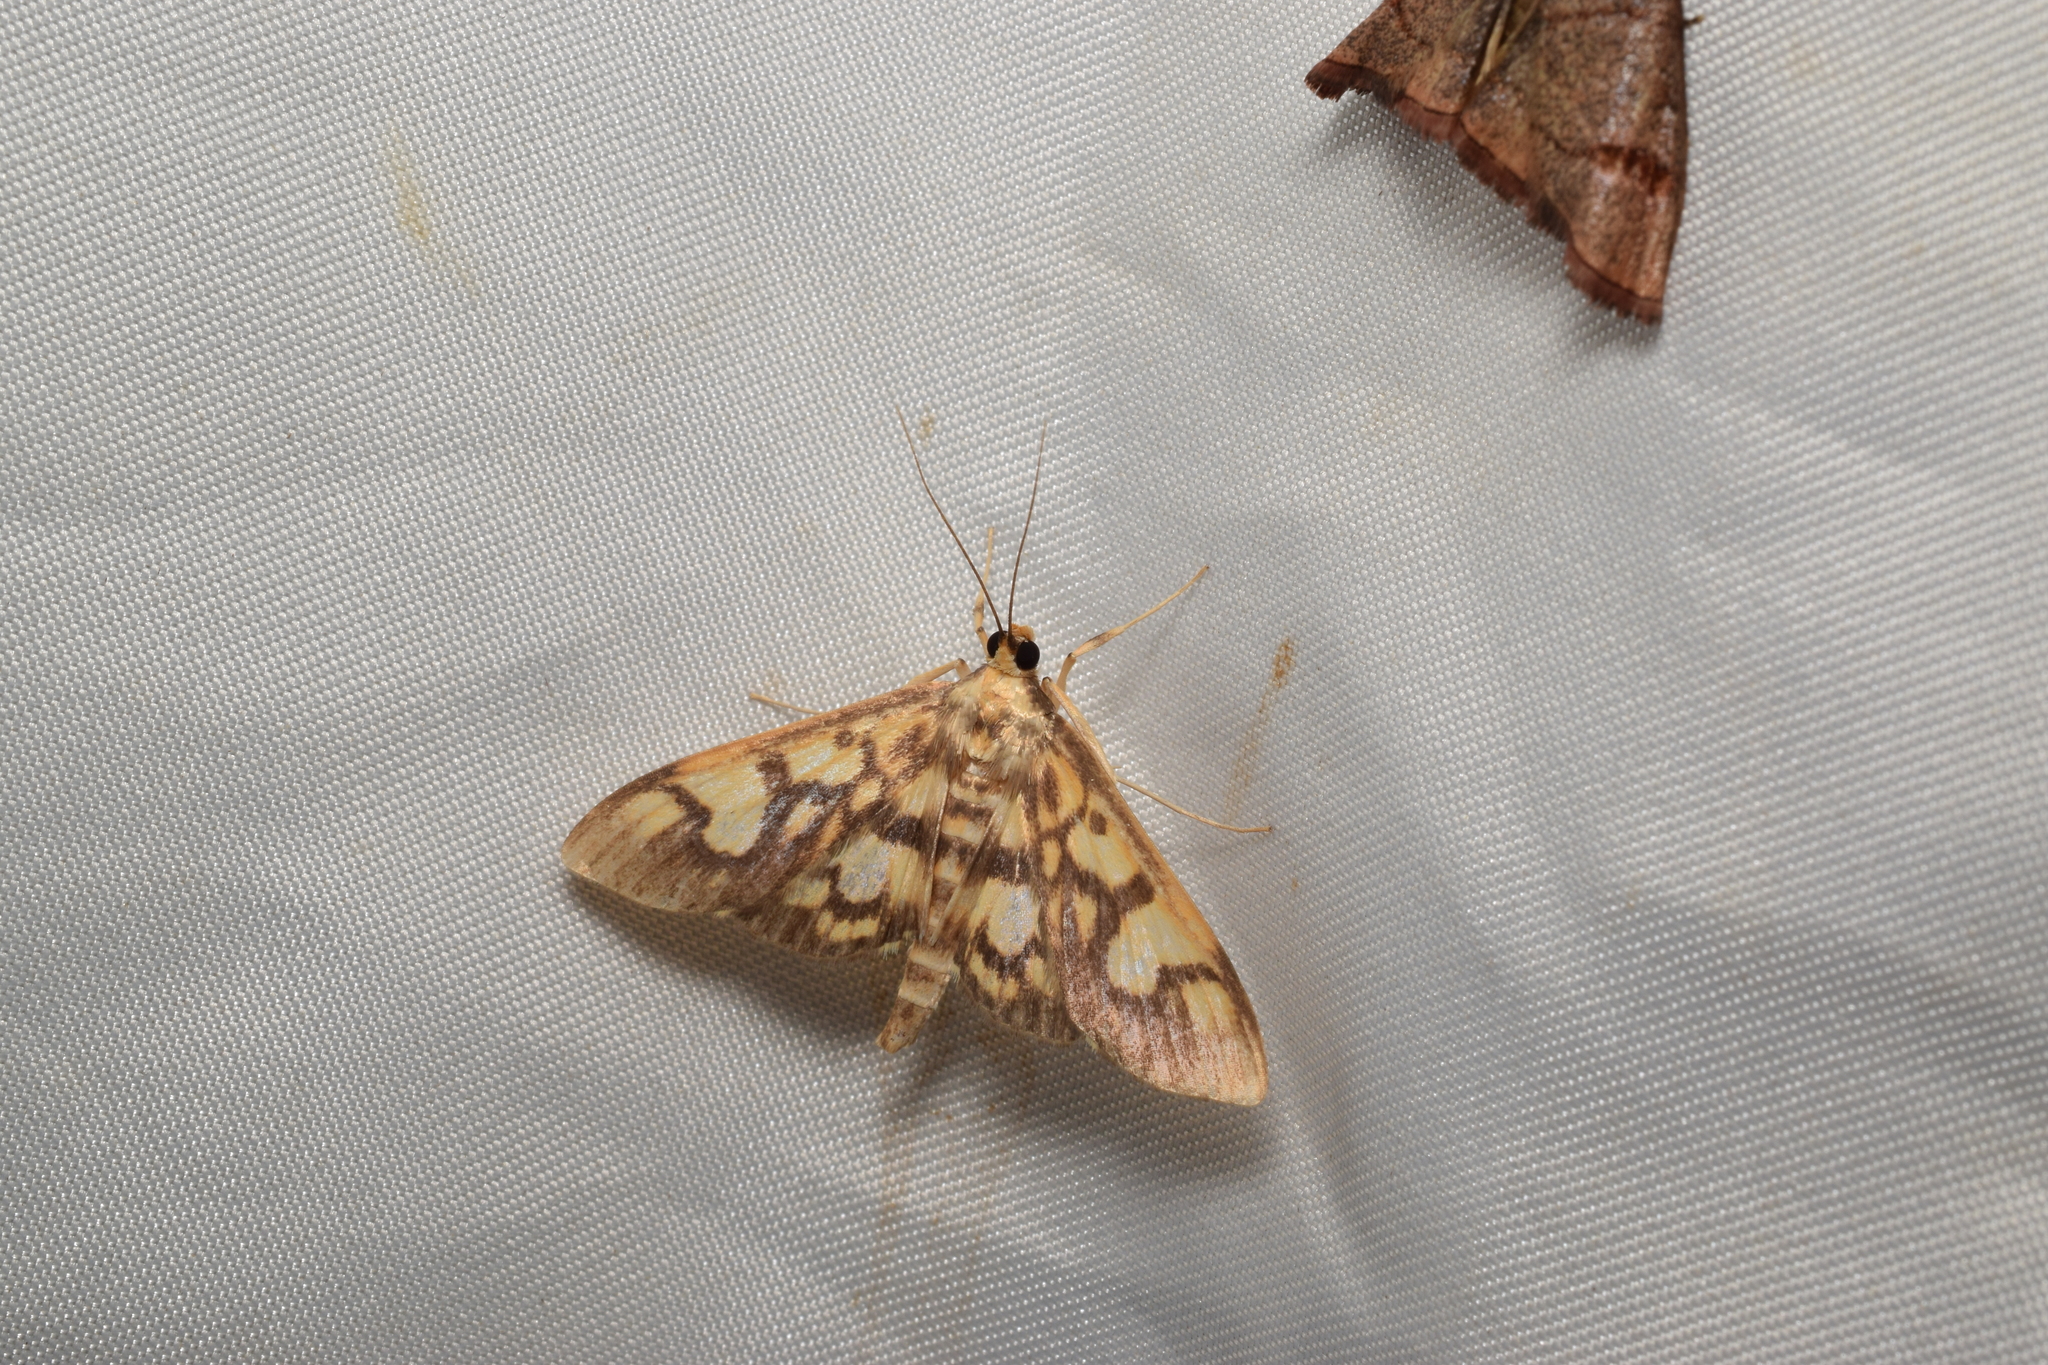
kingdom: Animalia
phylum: Arthropoda
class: Insecta
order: Lepidoptera
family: Crambidae
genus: Nosophora
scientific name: Nosophora insignis
